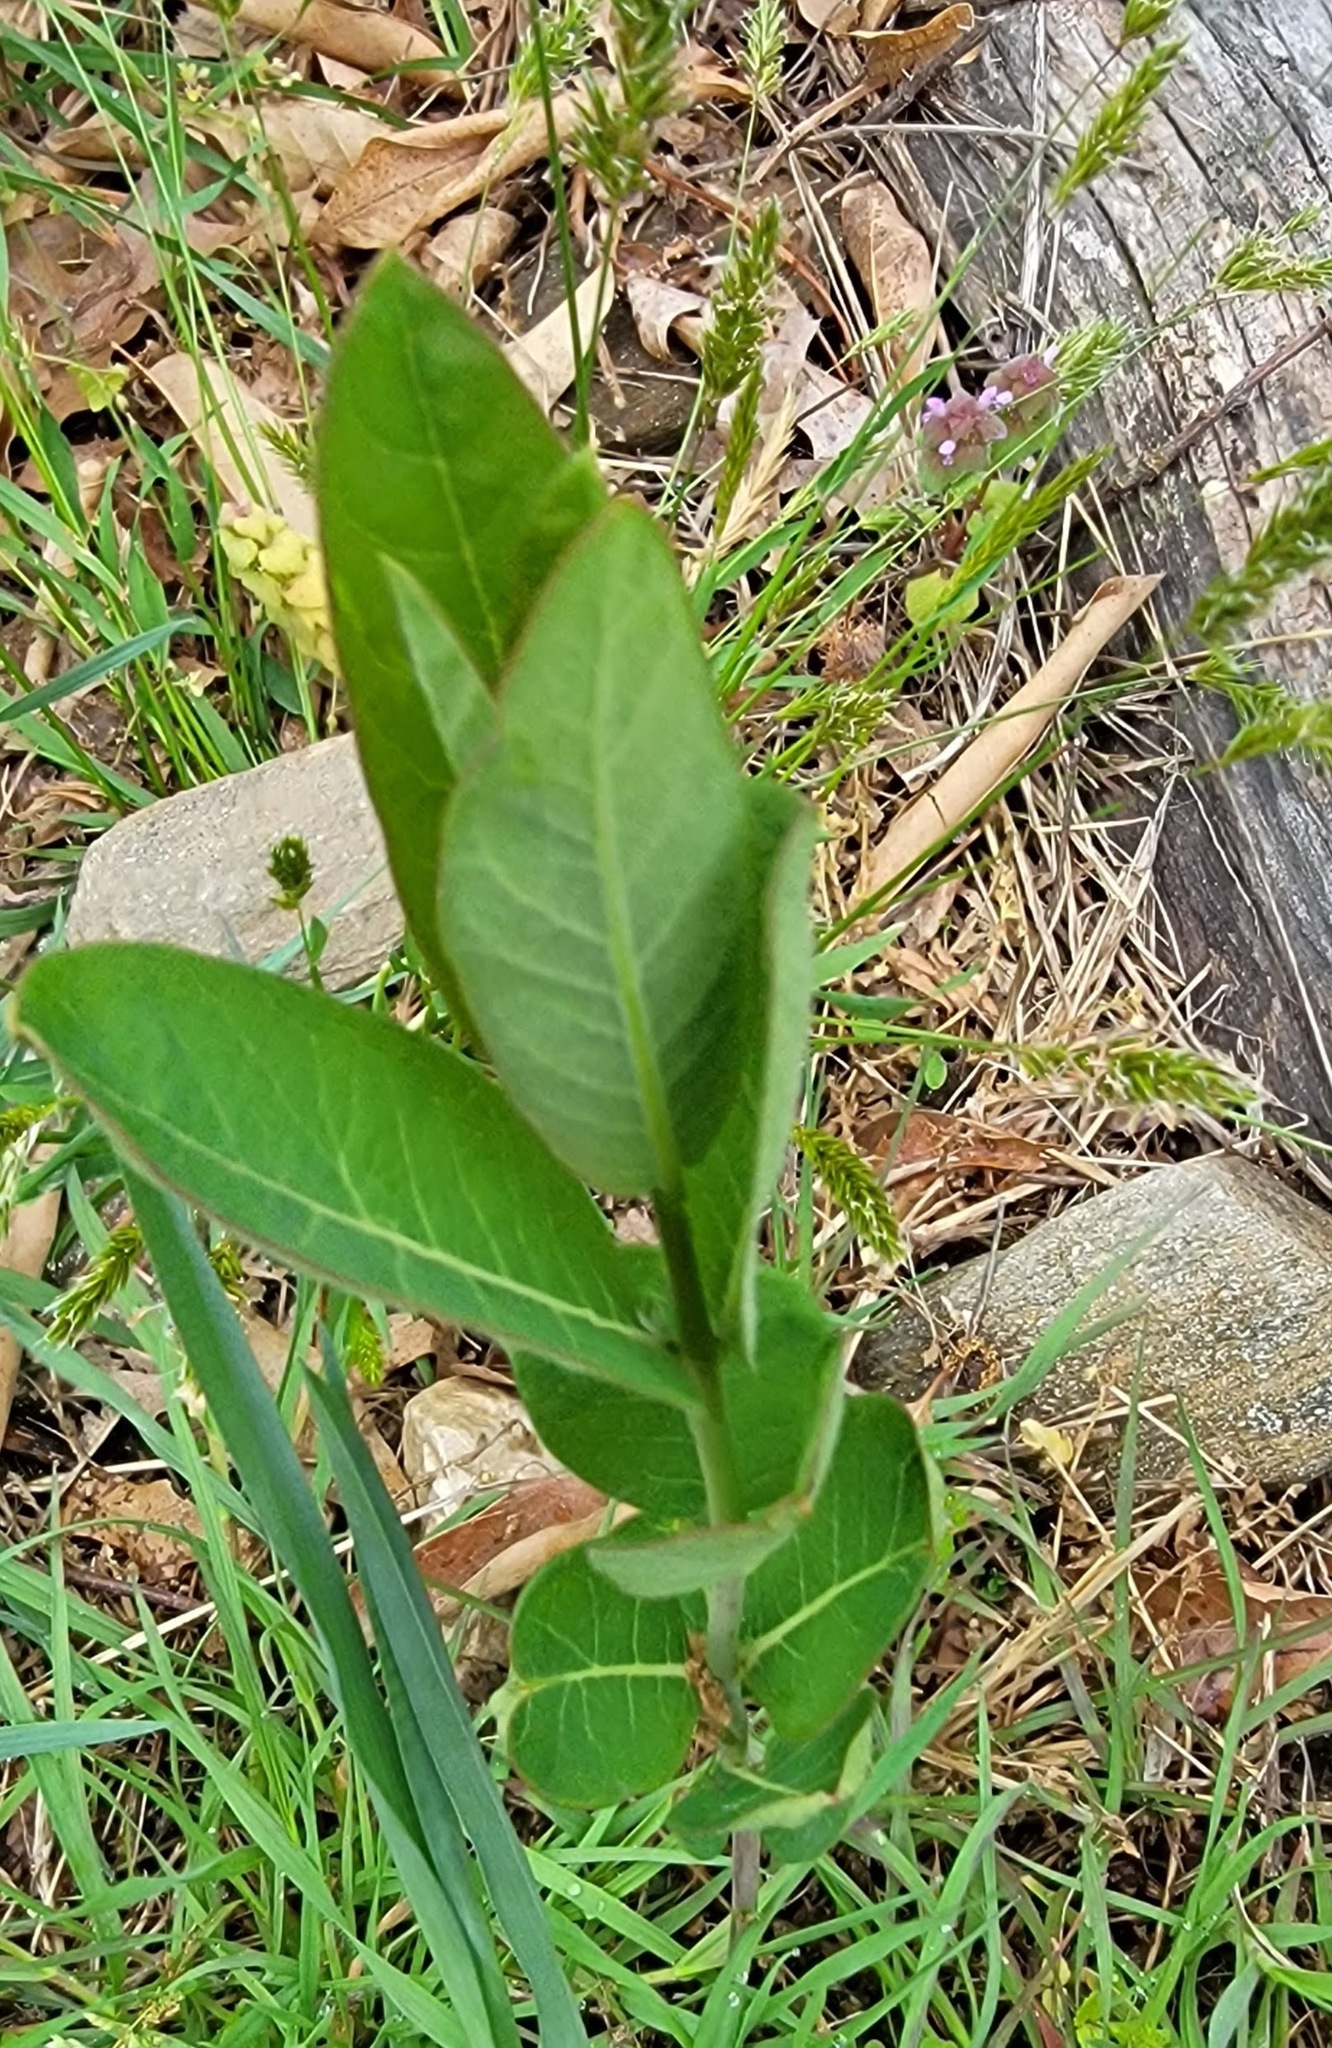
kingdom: Plantae
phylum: Tracheophyta
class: Magnoliopsida
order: Gentianales
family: Apocynaceae
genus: Asclepias
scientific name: Asclepias syriaca
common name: Common milkweed
